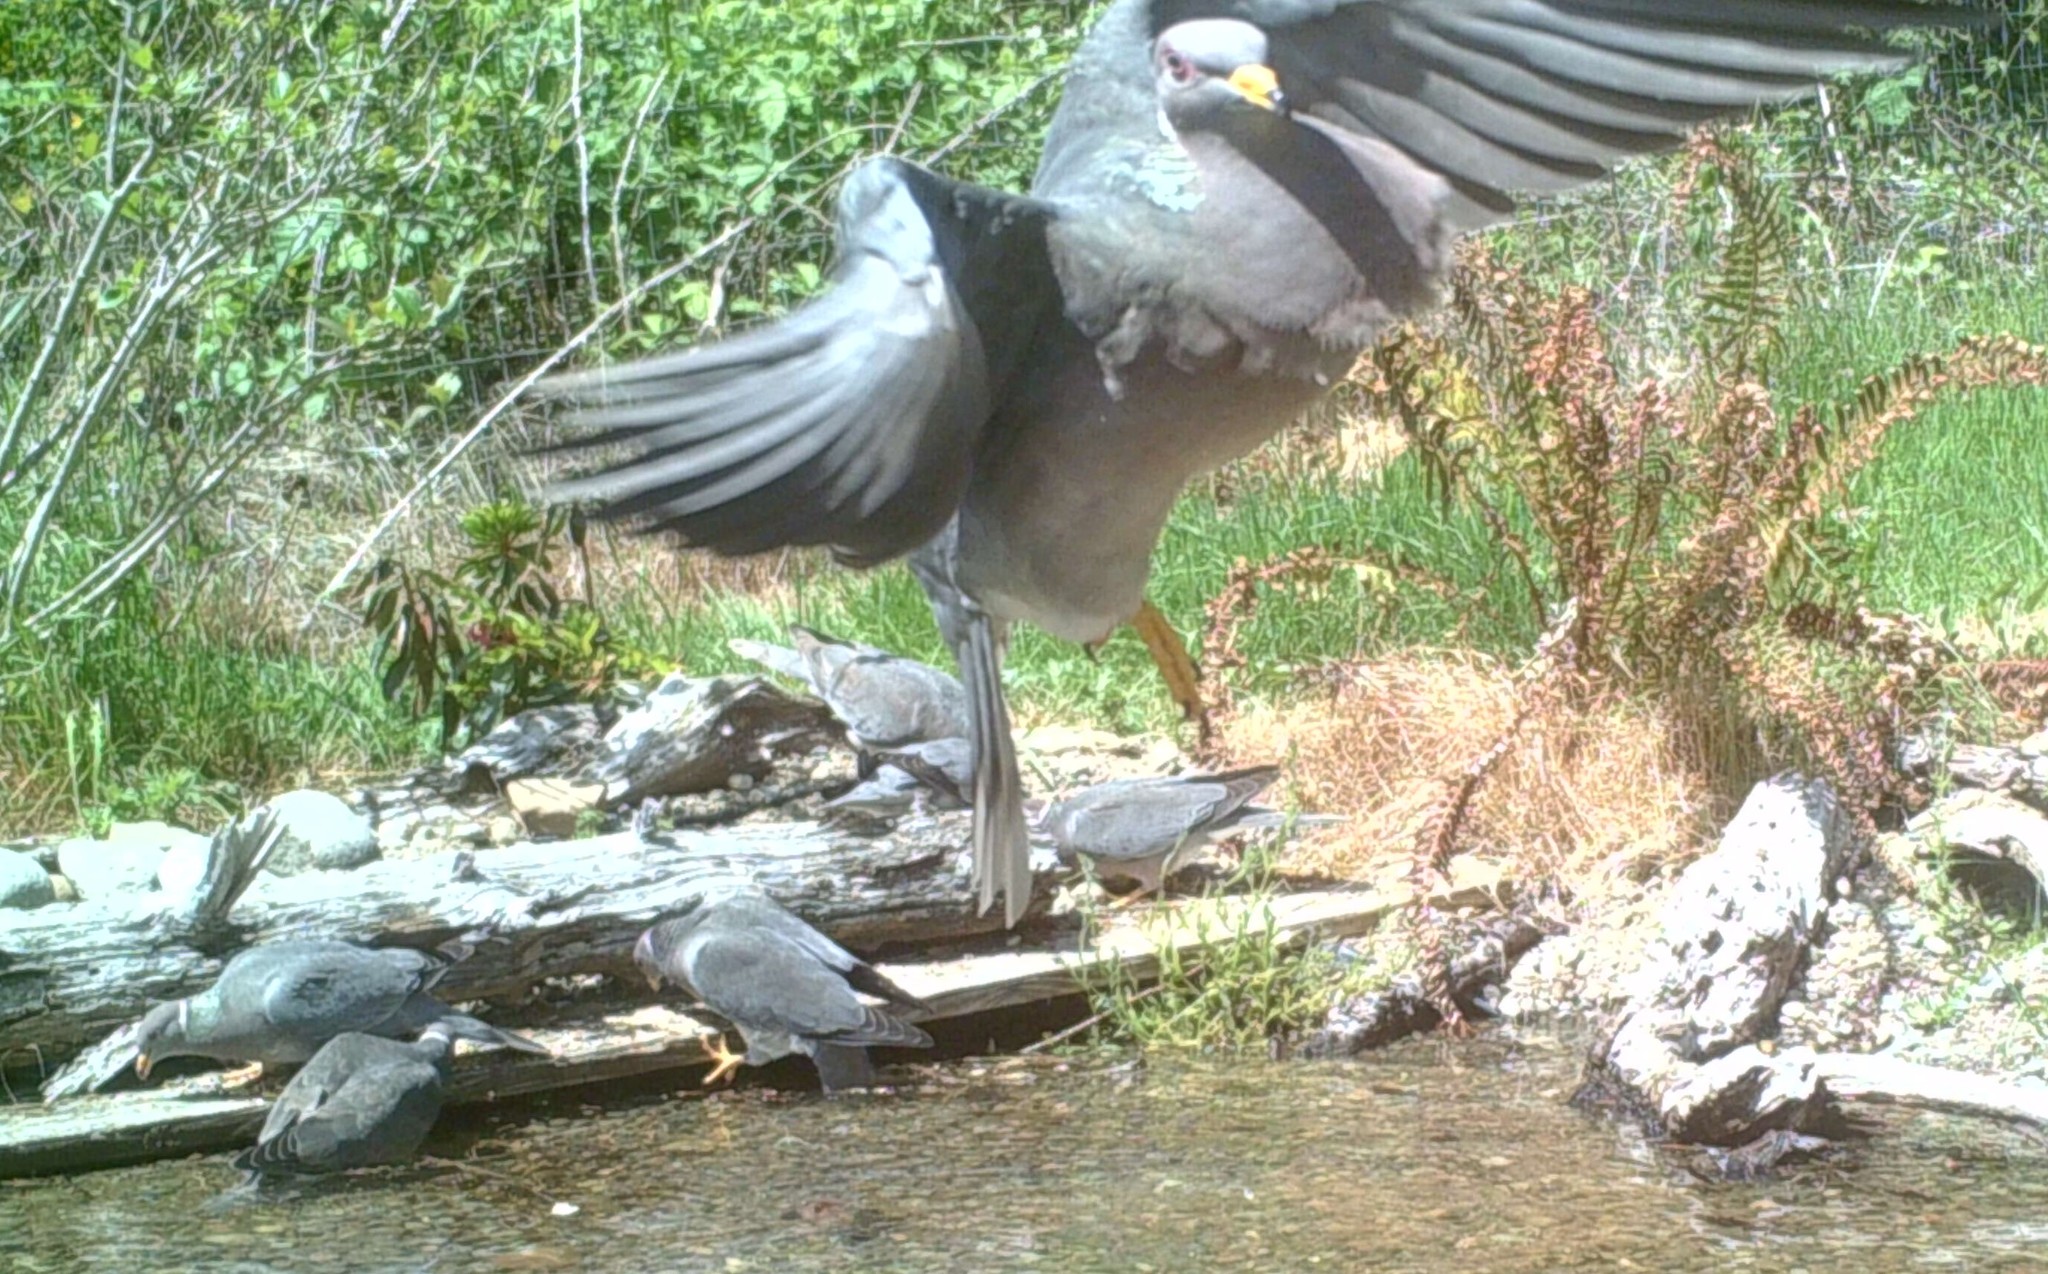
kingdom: Animalia
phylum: Chordata
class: Aves
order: Columbiformes
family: Columbidae
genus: Patagioenas
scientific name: Patagioenas fasciata
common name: Band-tailed pigeon
